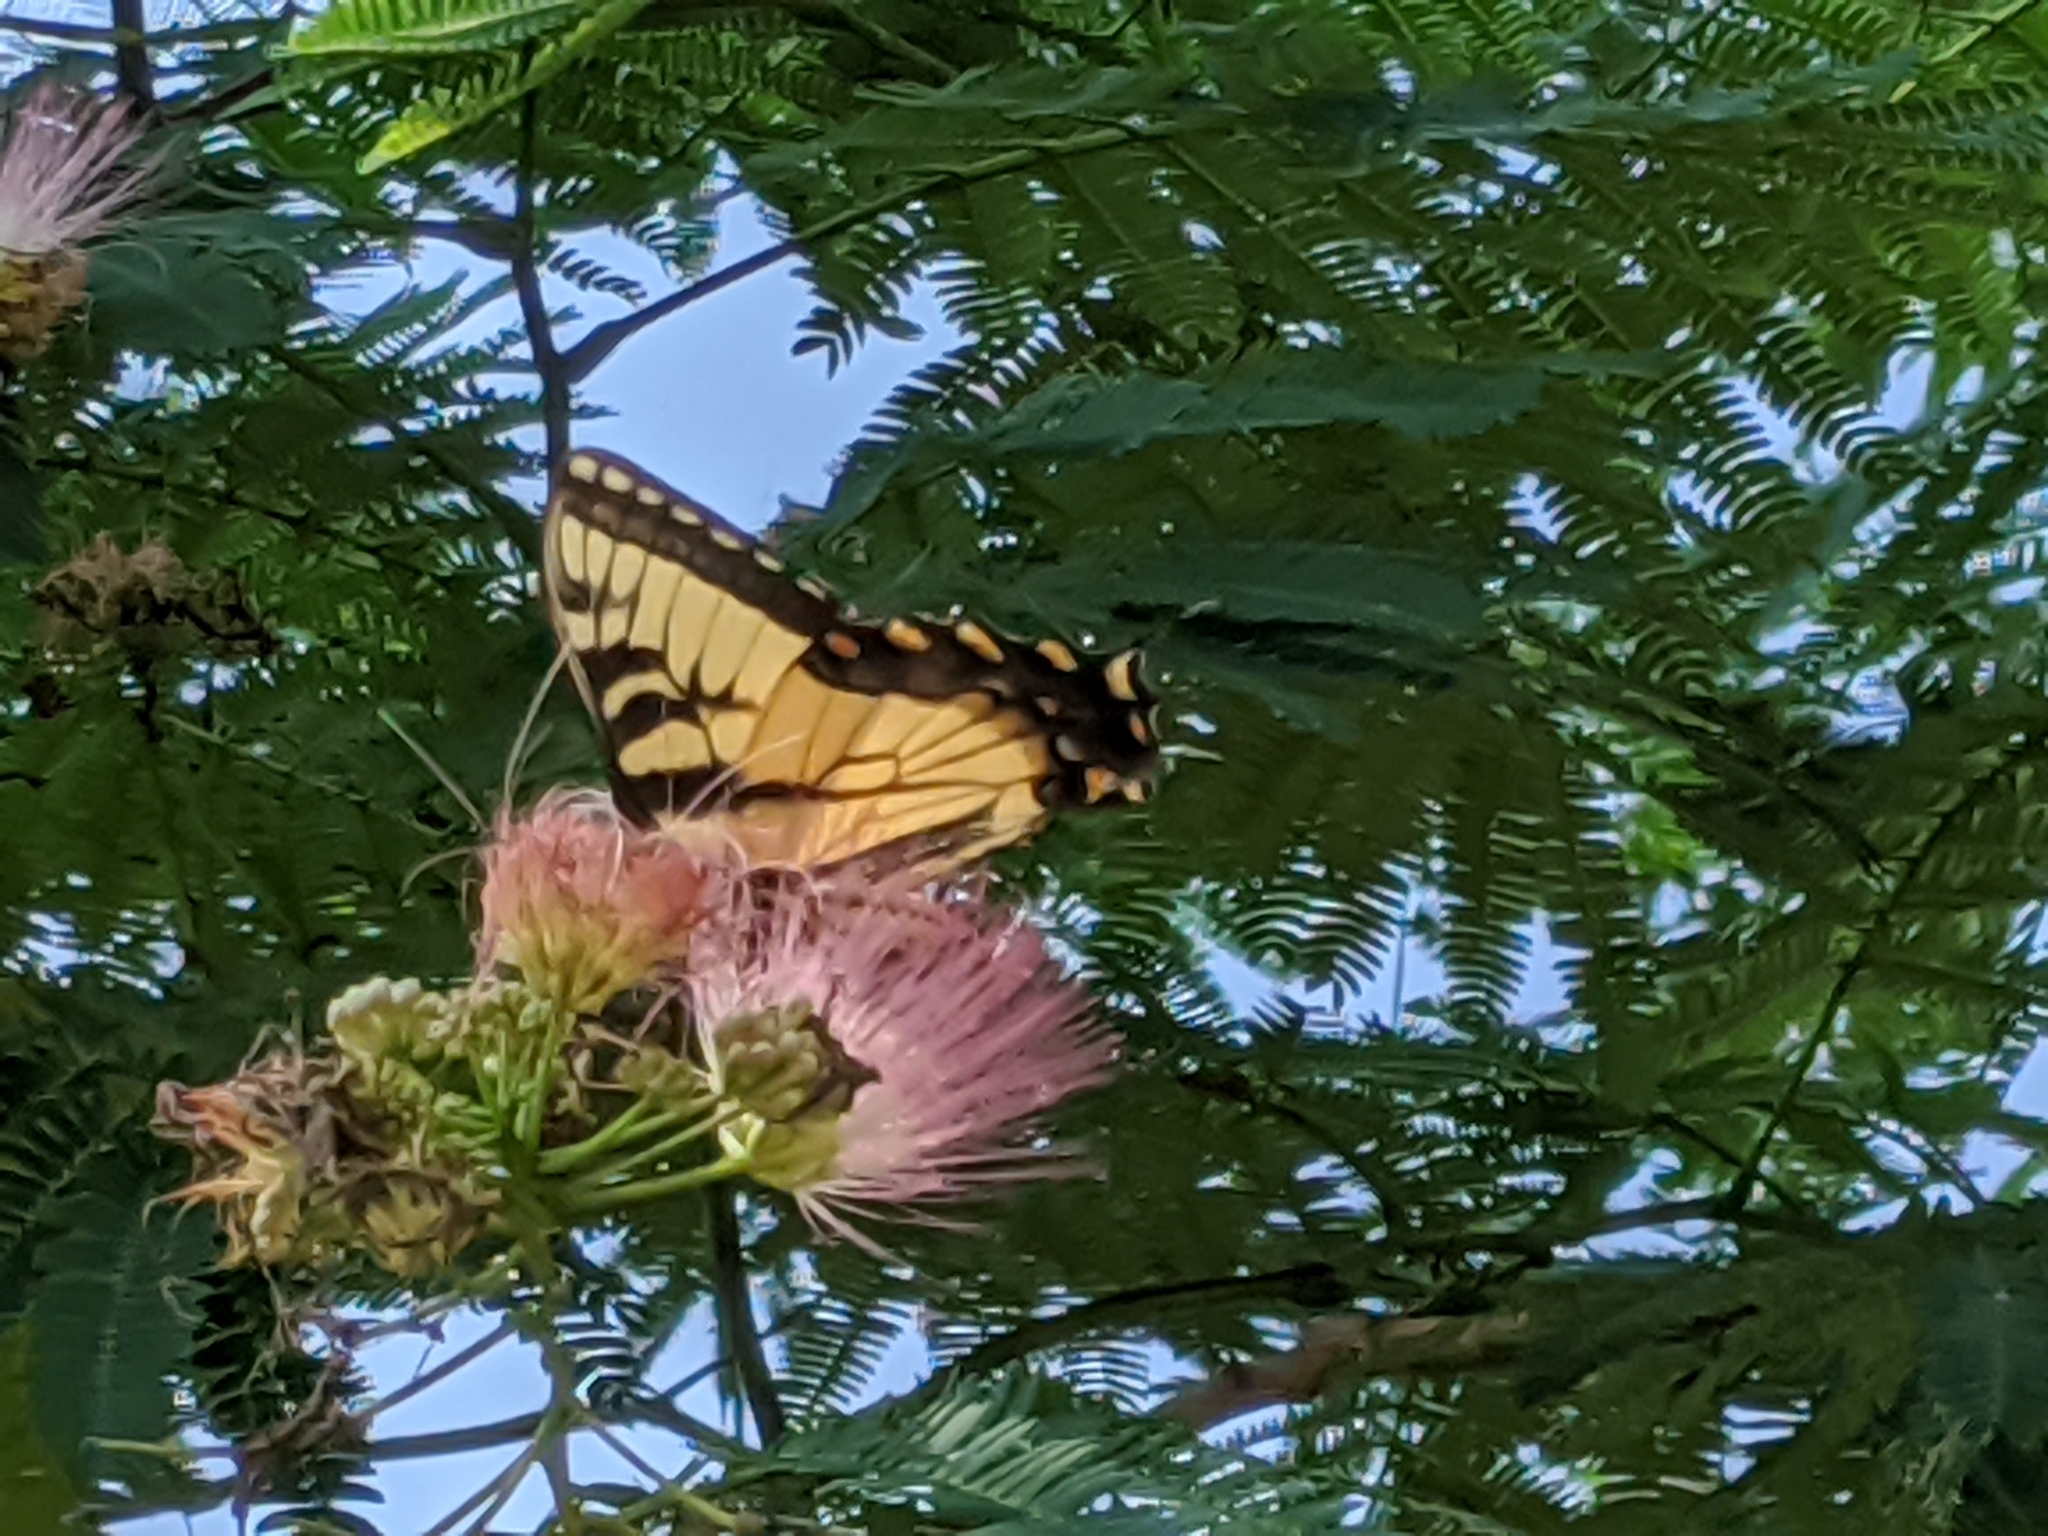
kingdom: Animalia
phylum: Arthropoda
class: Insecta
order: Lepidoptera
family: Papilionidae
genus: Papilio
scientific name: Papilio glaucus
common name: Tiger swallowtail
